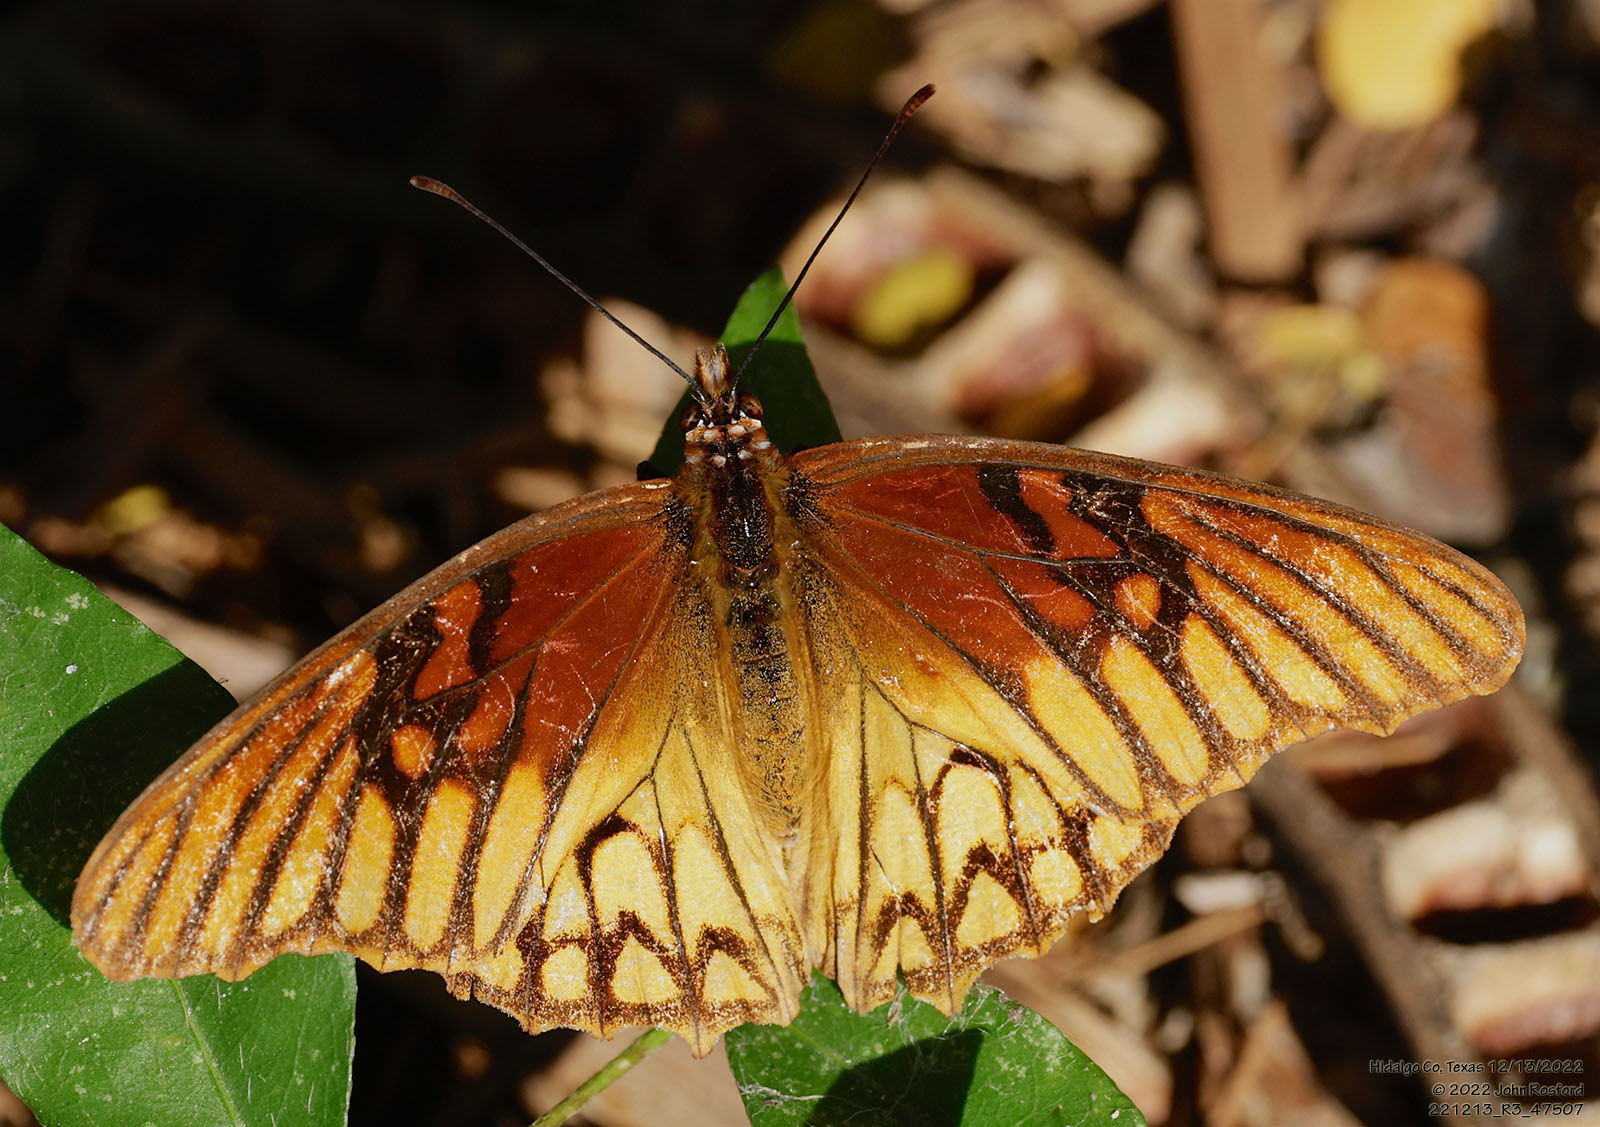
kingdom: Animalia
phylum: Arthropoda
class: Insecta
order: Lepidoptera
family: Nymphalidae
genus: Dione
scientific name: Dione moneta
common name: Mexican silverspot
